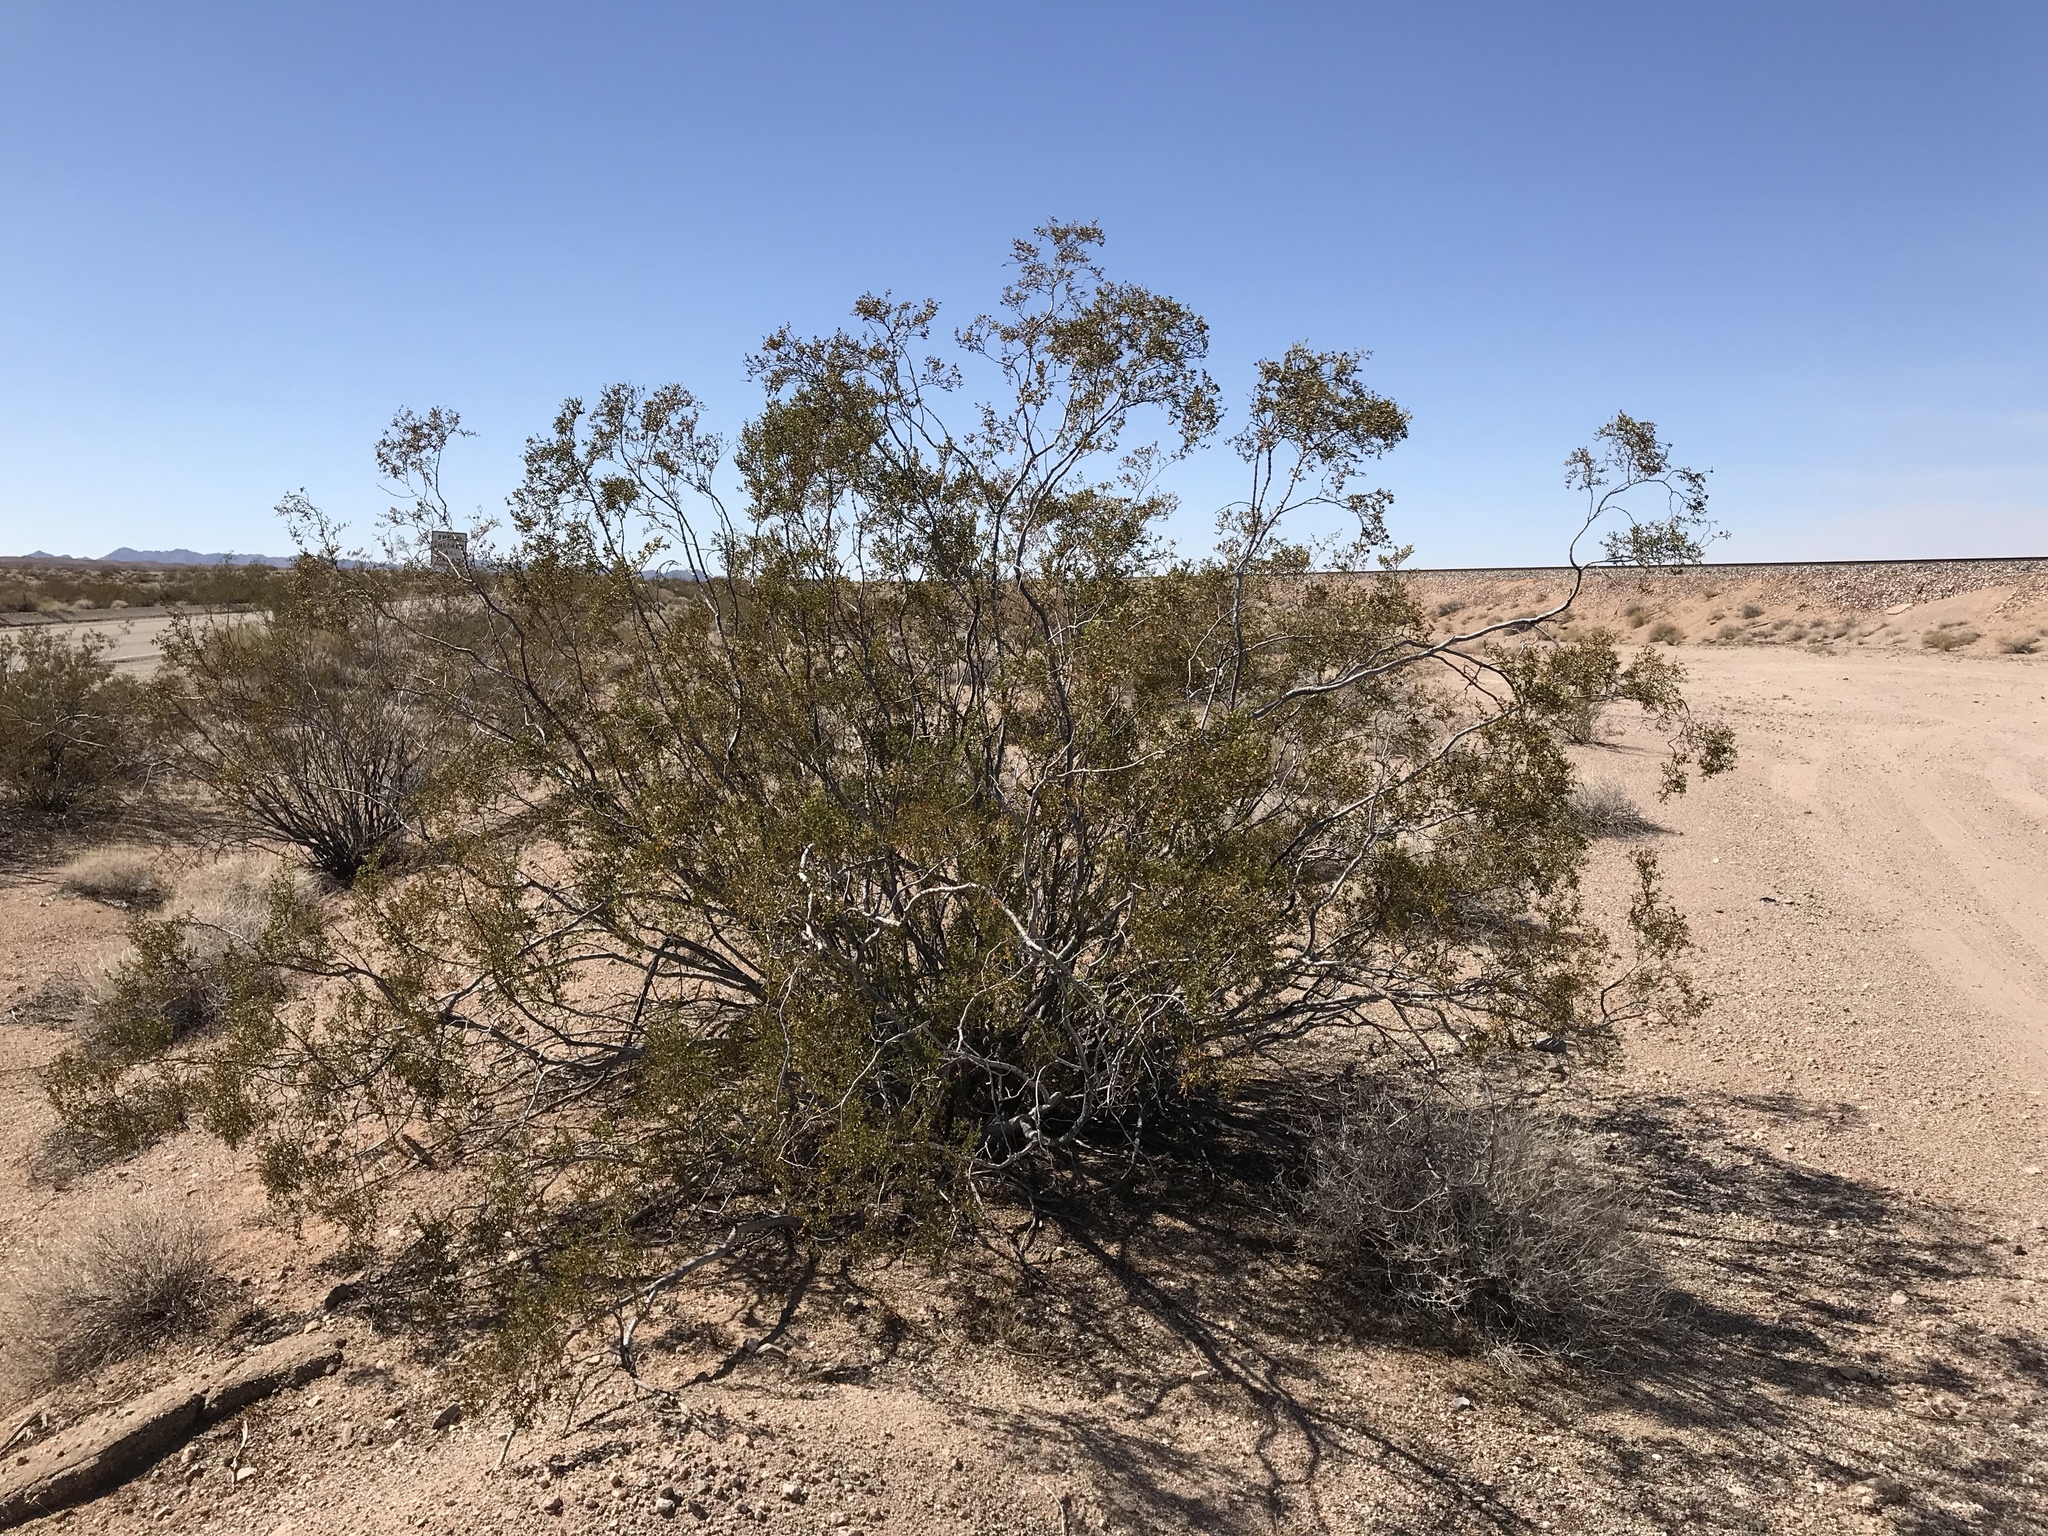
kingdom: Plantae
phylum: Tracheophyta
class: Magnoliopsida
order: Zygophyllales
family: Zygophyllaceae
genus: Larrea
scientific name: Larrea tridentata
